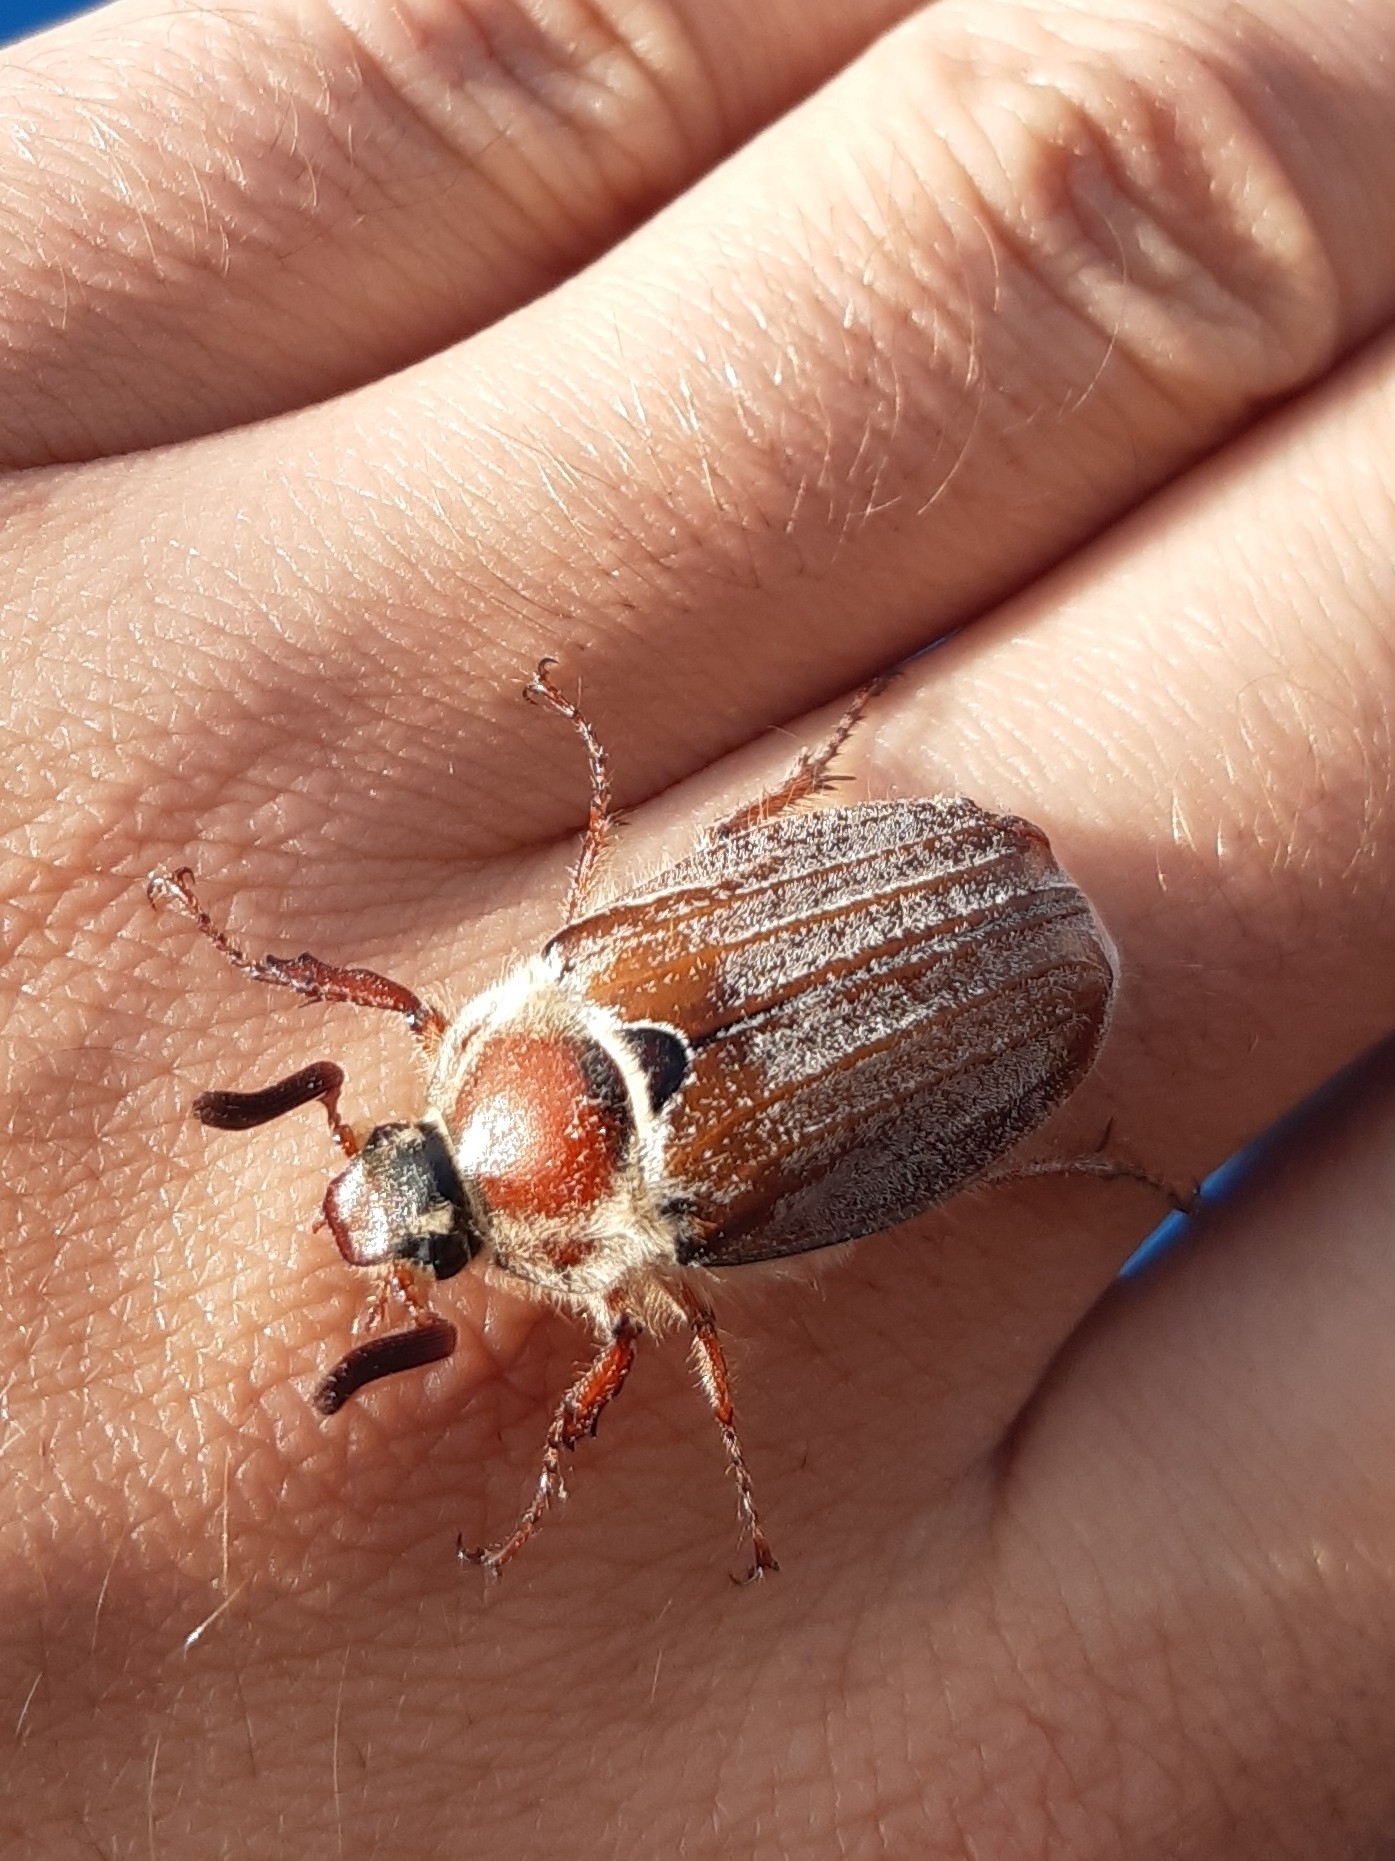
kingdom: Animalia
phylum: Arthropoda
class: Insecta
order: Coleoptera
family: Scarabaeidae
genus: Melolontha
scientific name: Melolontha hippocastani
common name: Chestnut cockchafer
